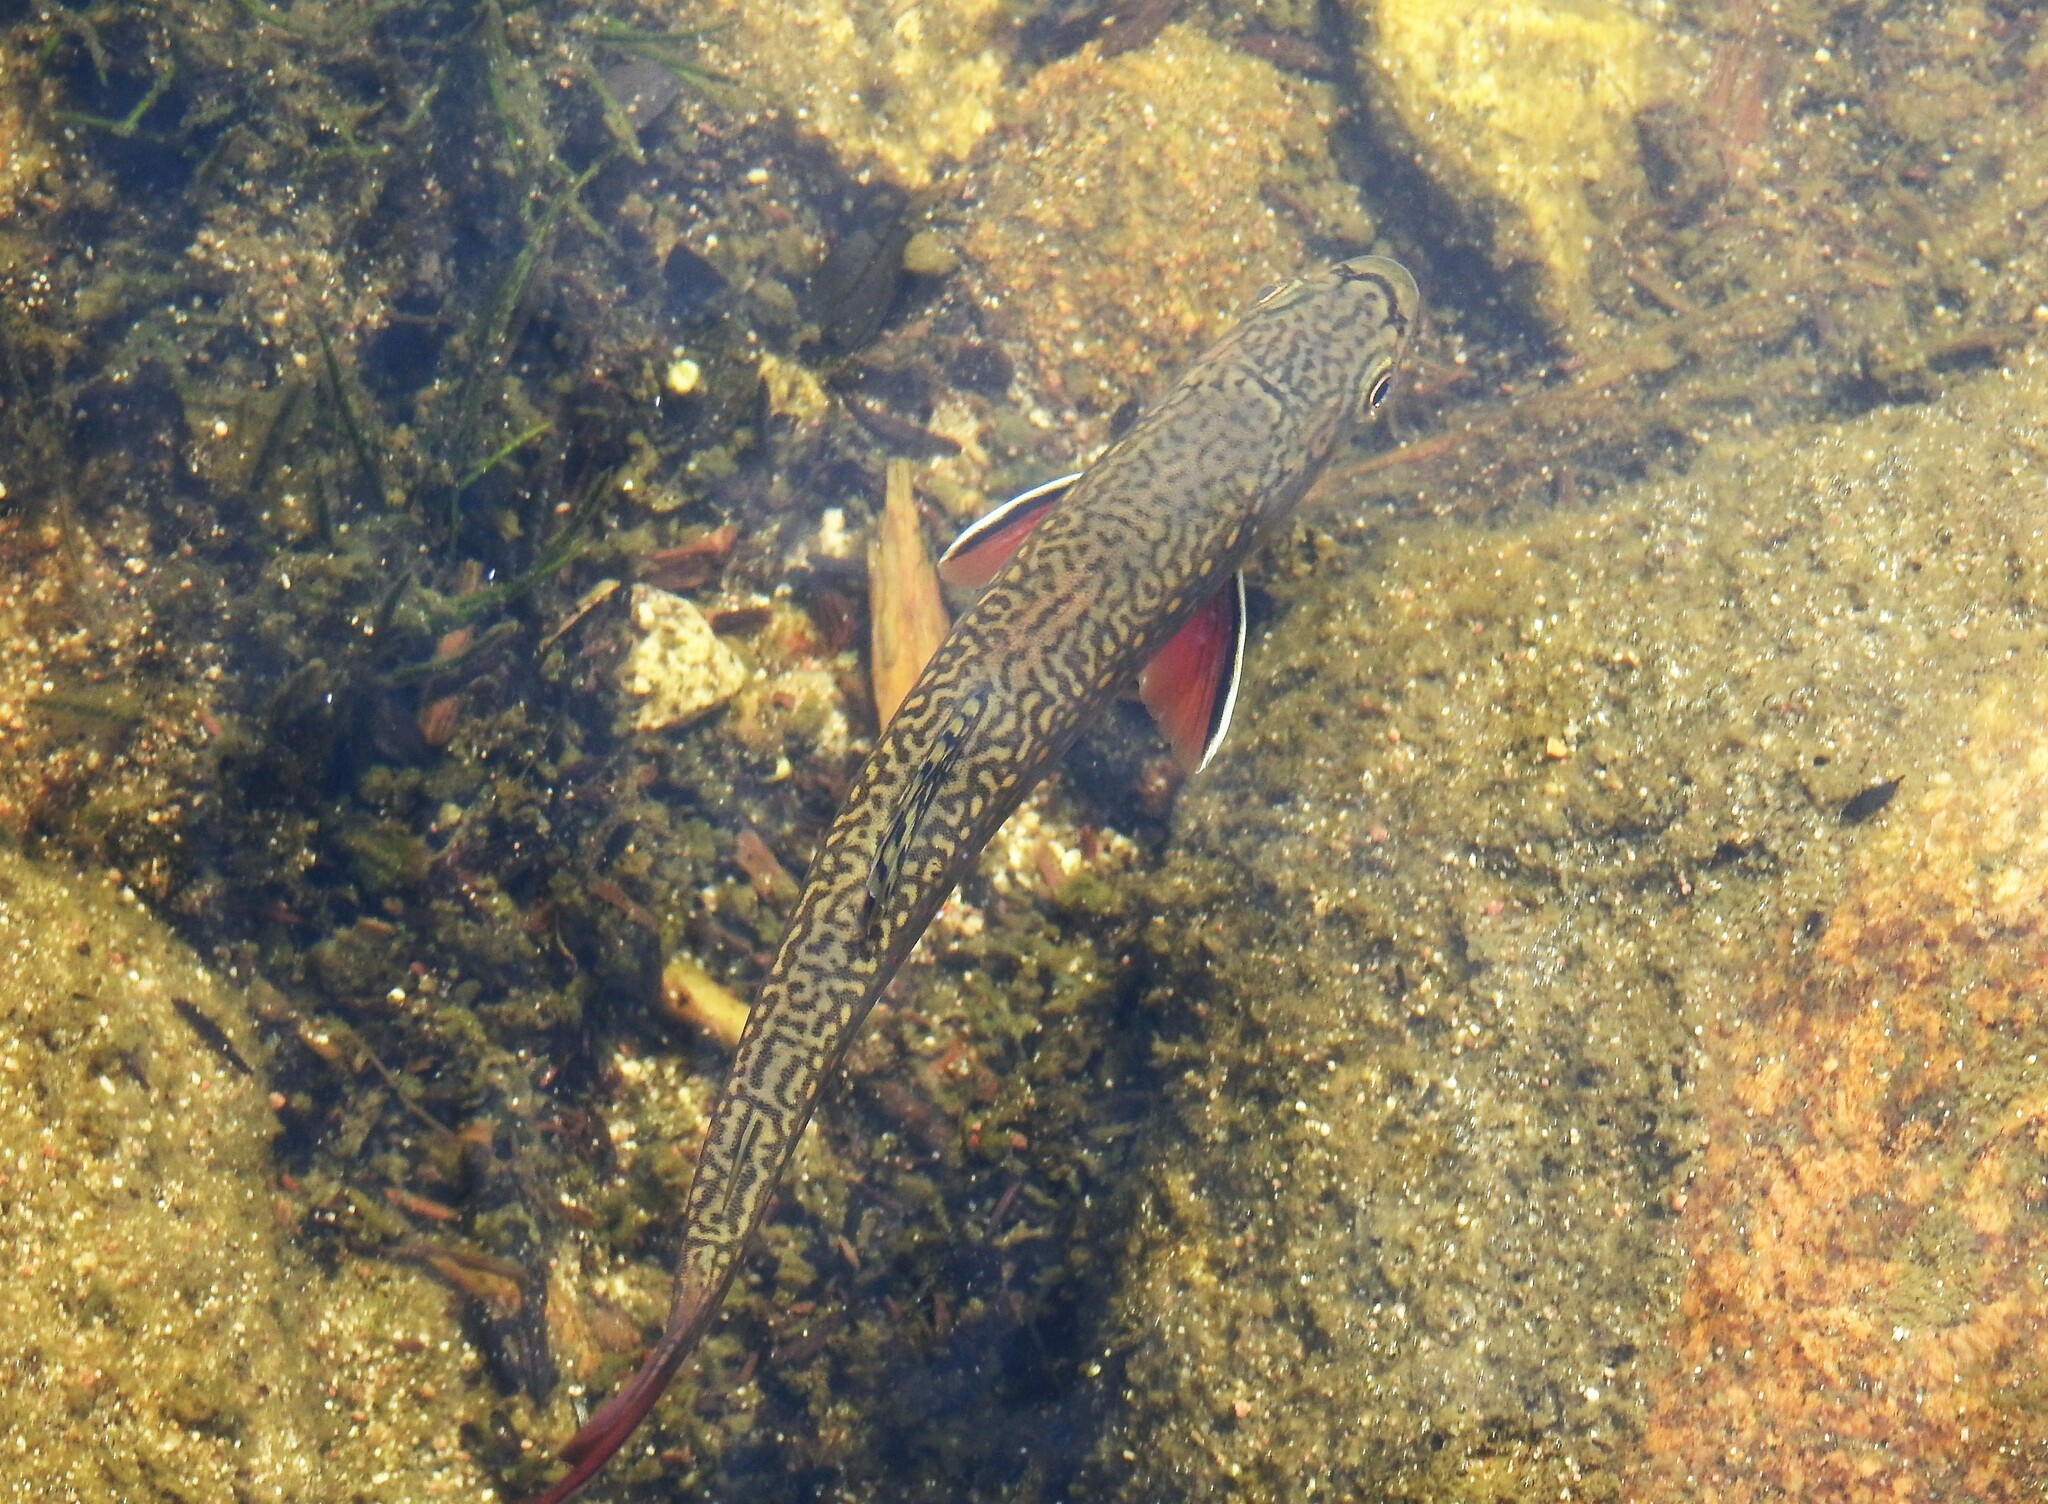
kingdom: Animalia
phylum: Chordata
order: Salmoniformes
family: Salmonidae
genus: Salvelinus
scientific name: Salvelinus fontinalis
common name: Brook trout
